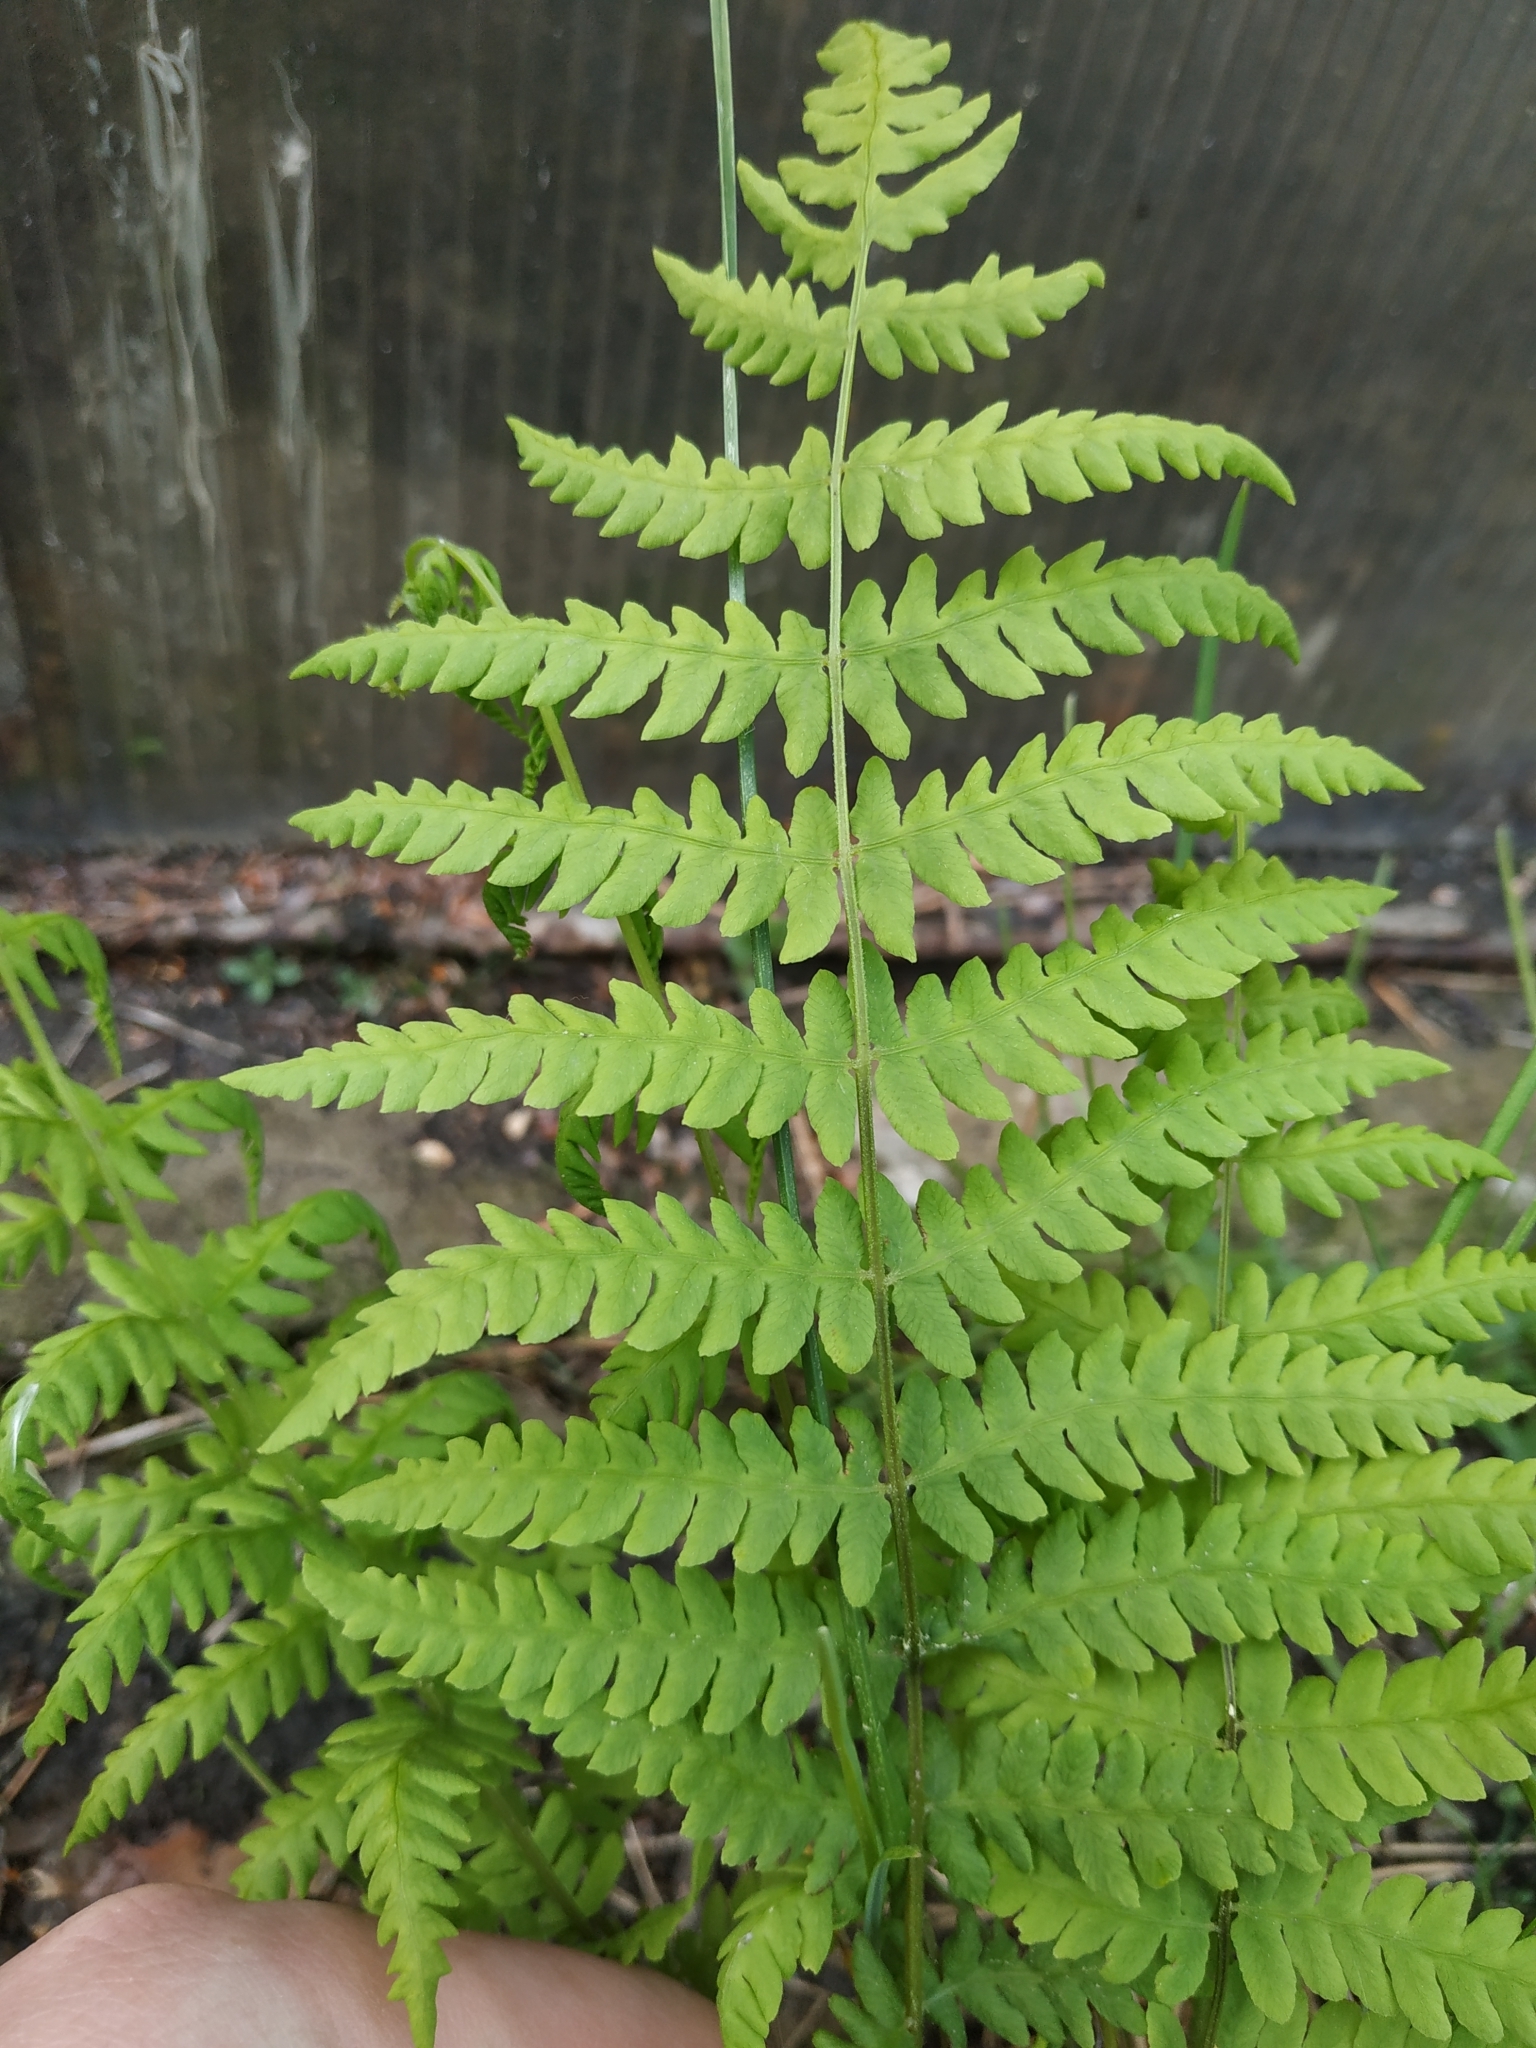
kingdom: Plantae
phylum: Tracheophyta
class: Polypodiopsida
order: Polypodiales
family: Thelypteridaceae
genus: Thelypteris
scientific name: Thelypteris palustris
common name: Marsh fern
